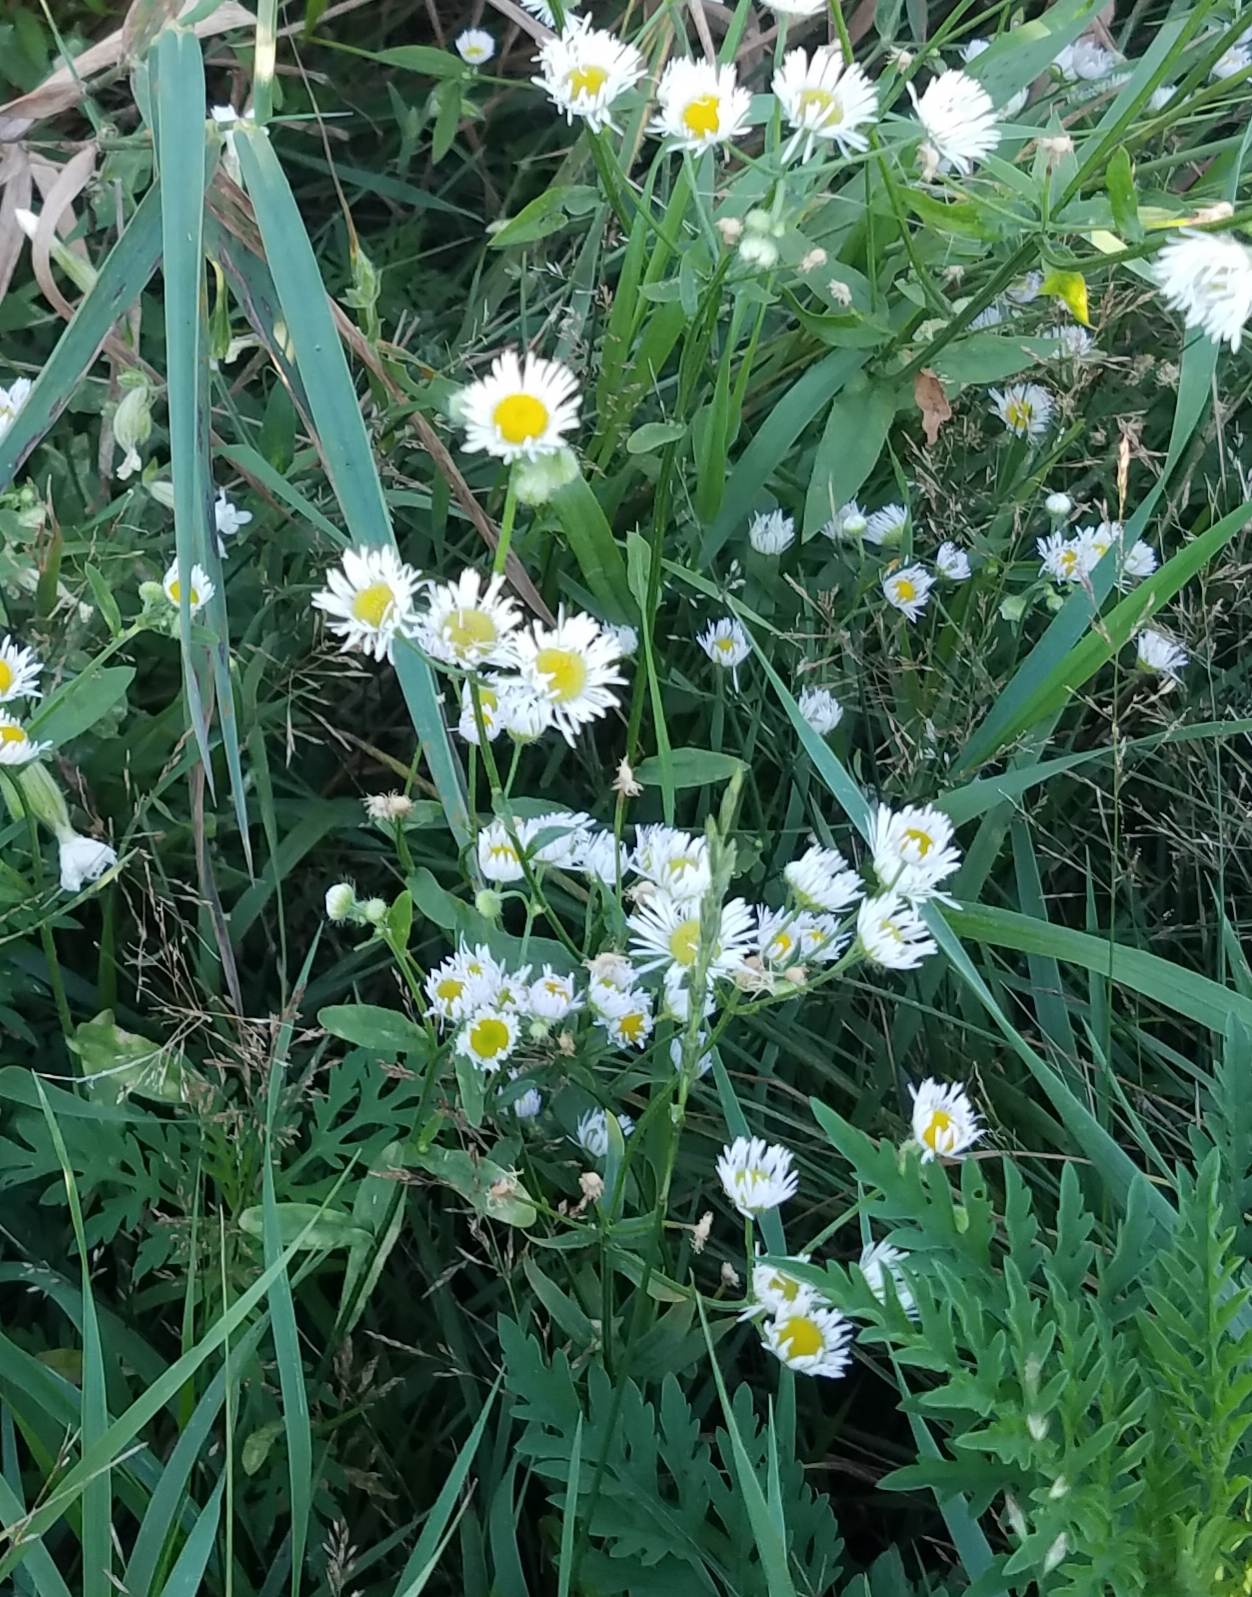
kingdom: Plantae
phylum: Tracheophyta
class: Magnoliopsida
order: Asterales
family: Asteraceae
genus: Erigeron
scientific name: Erigeron strigosus
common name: Common eastern fleabane
